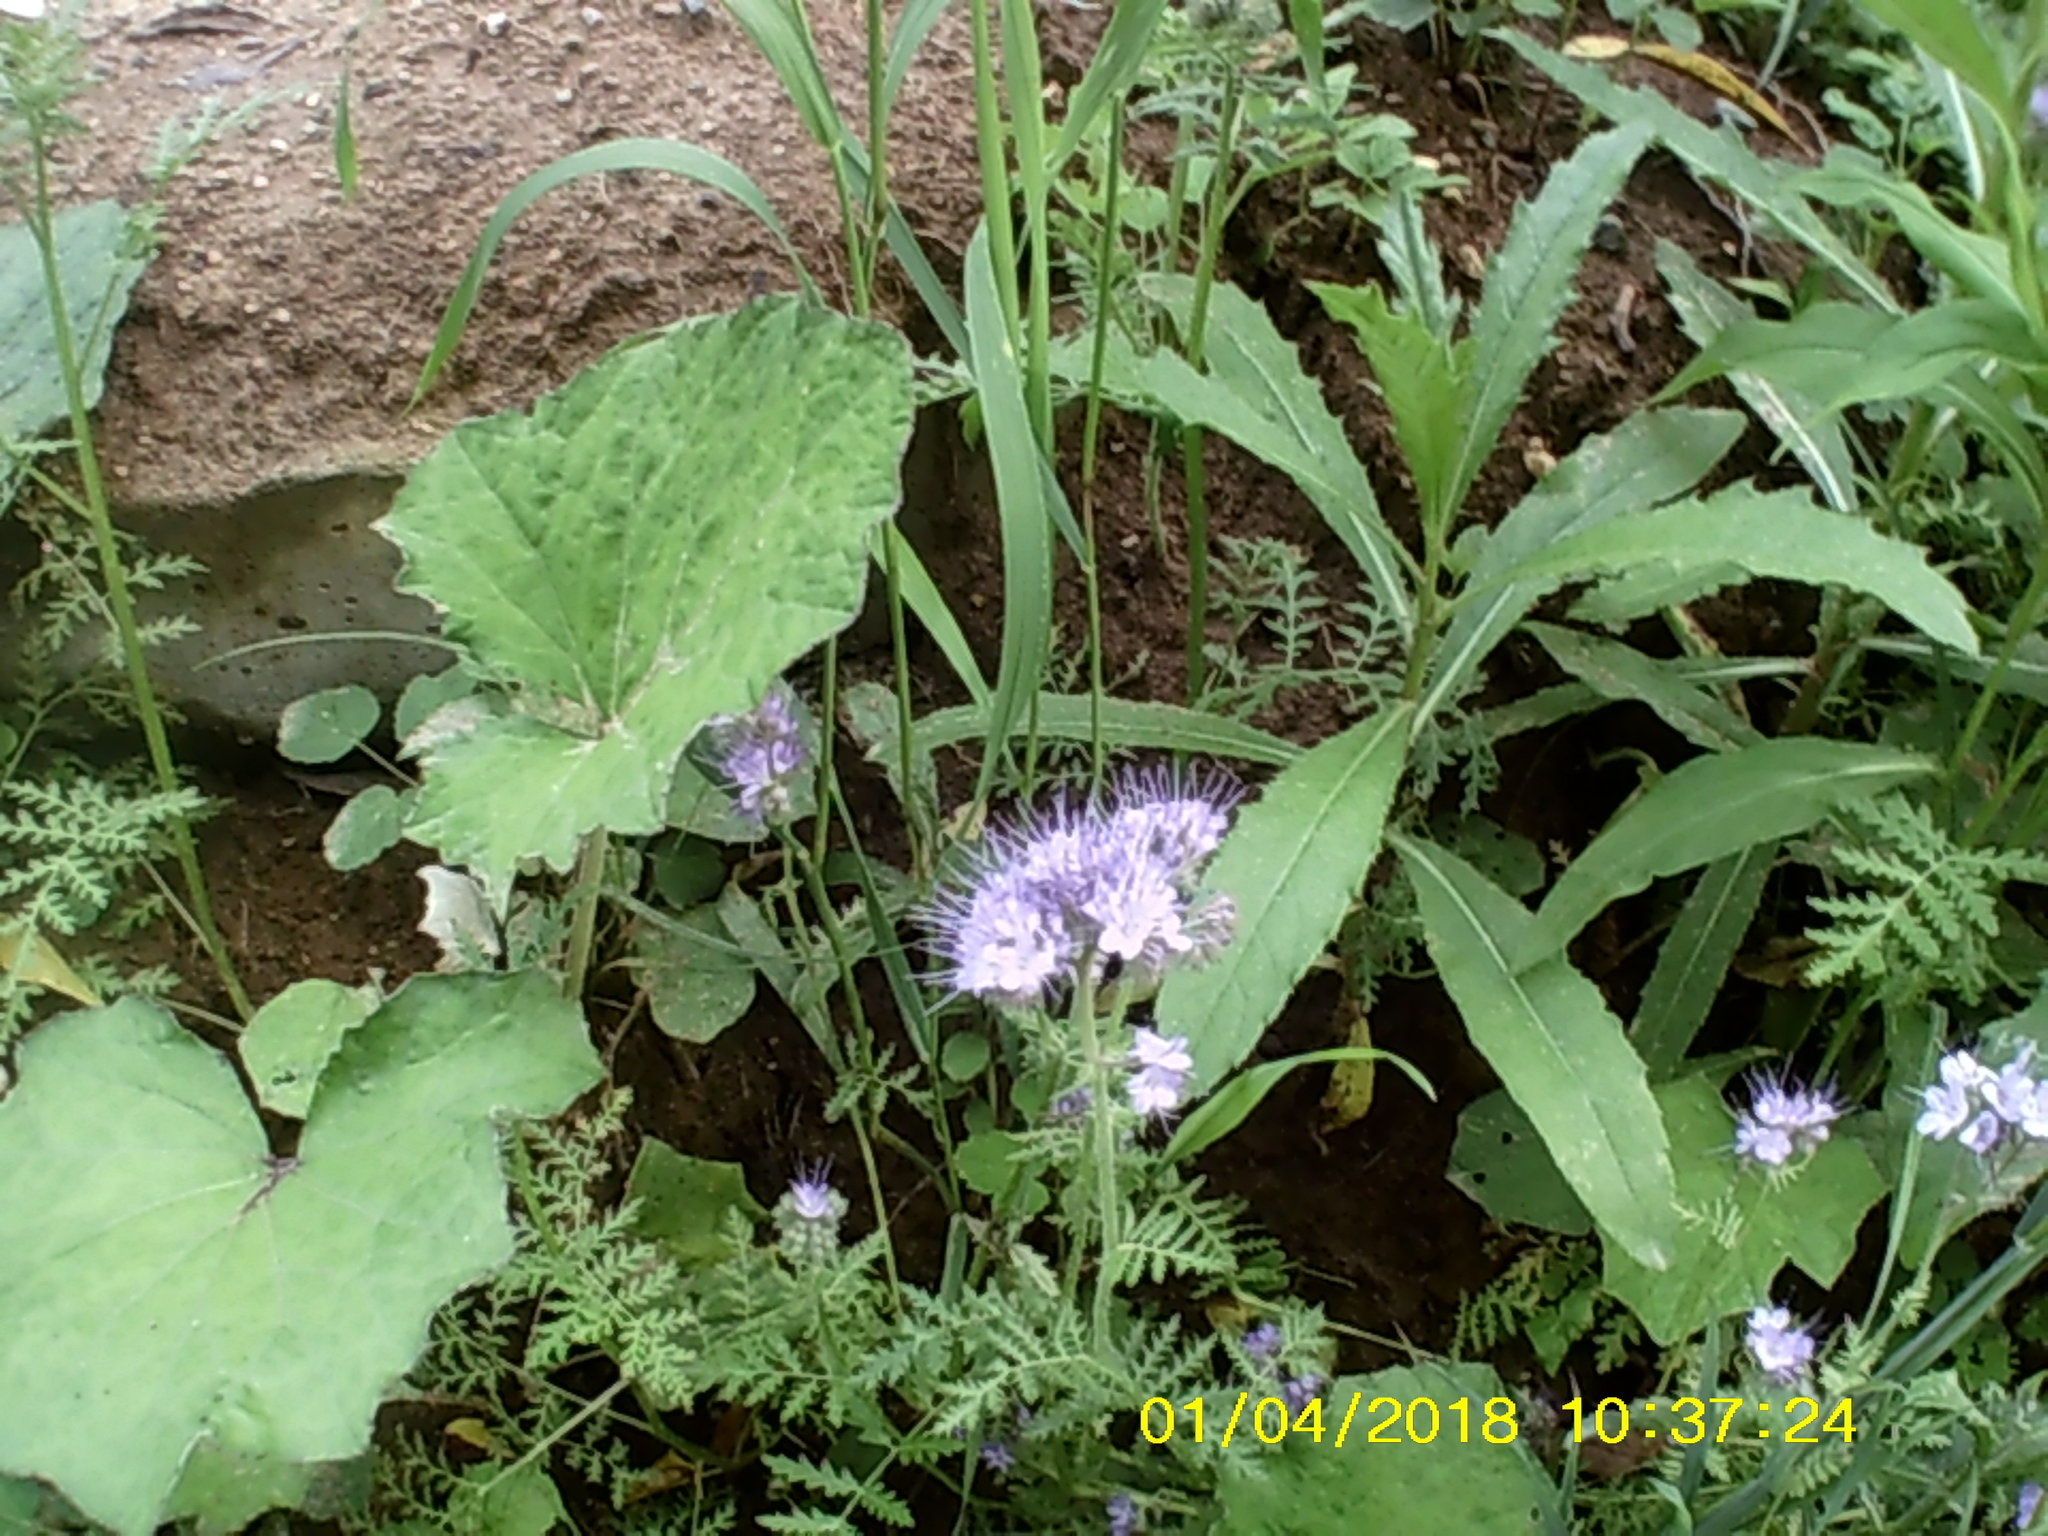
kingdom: Plantae
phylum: Tracheophyta
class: Magnoliopsida
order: Boraginales
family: Hydrophyllaceae
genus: Phacelia
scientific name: Phacelia tanacetifolia
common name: Phacelia
